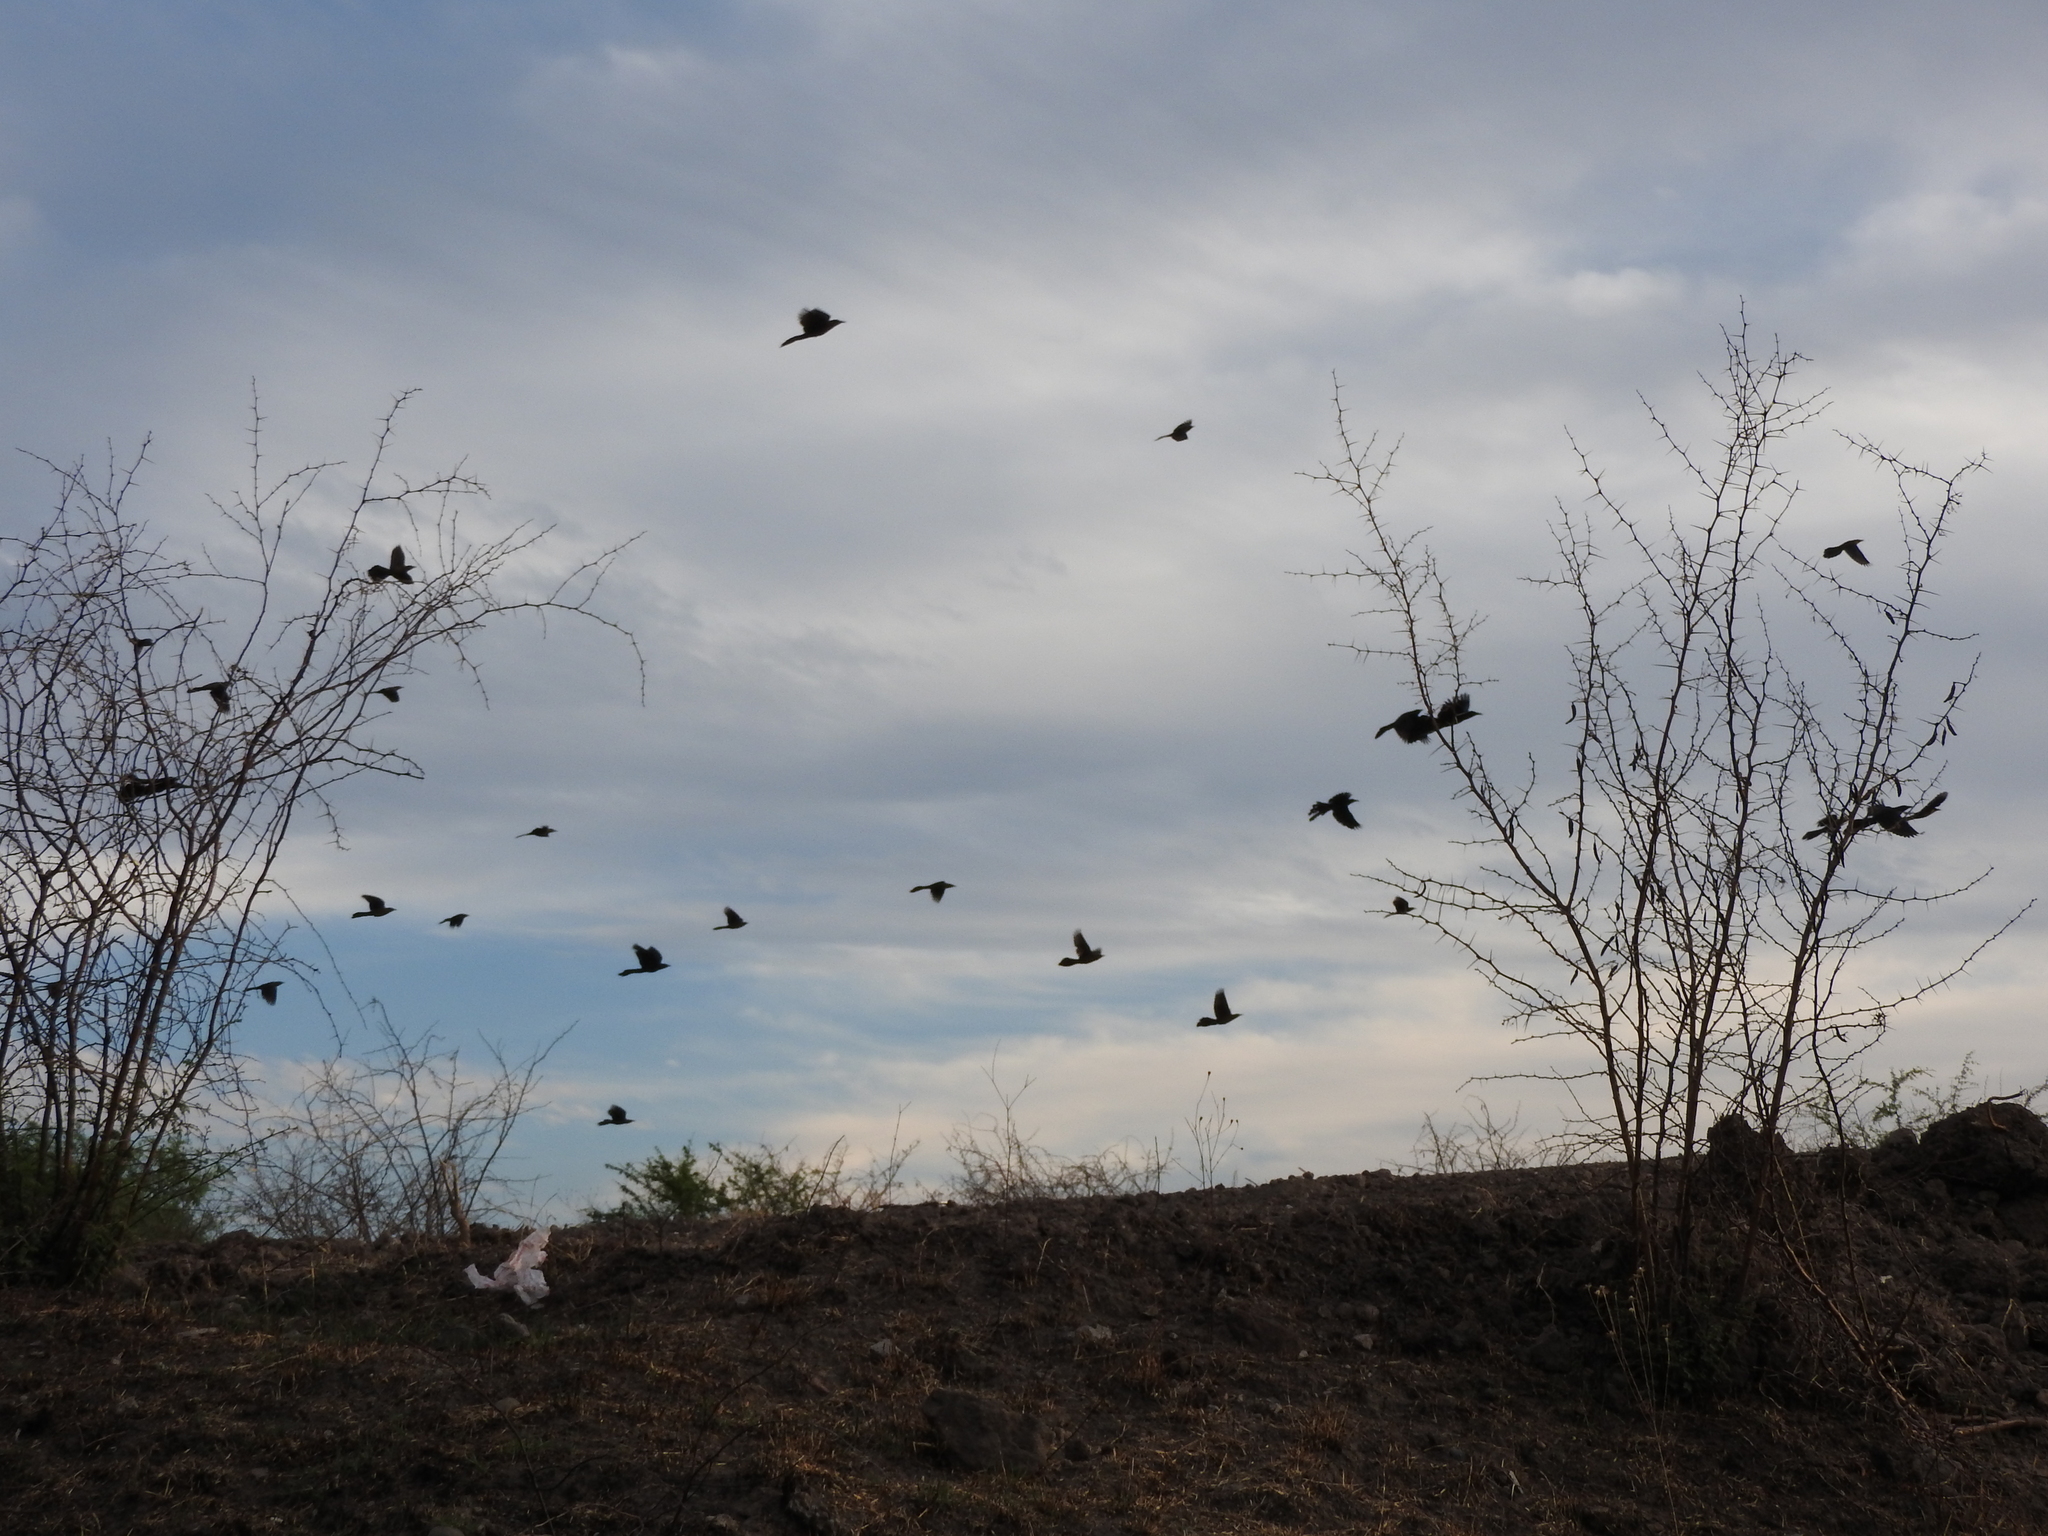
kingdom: Animalia
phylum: Chordata
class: Aves
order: Passeriformes
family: Icteridae
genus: Quiscalus
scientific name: Quiscalus mexicanus
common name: Great-tailed grackle
